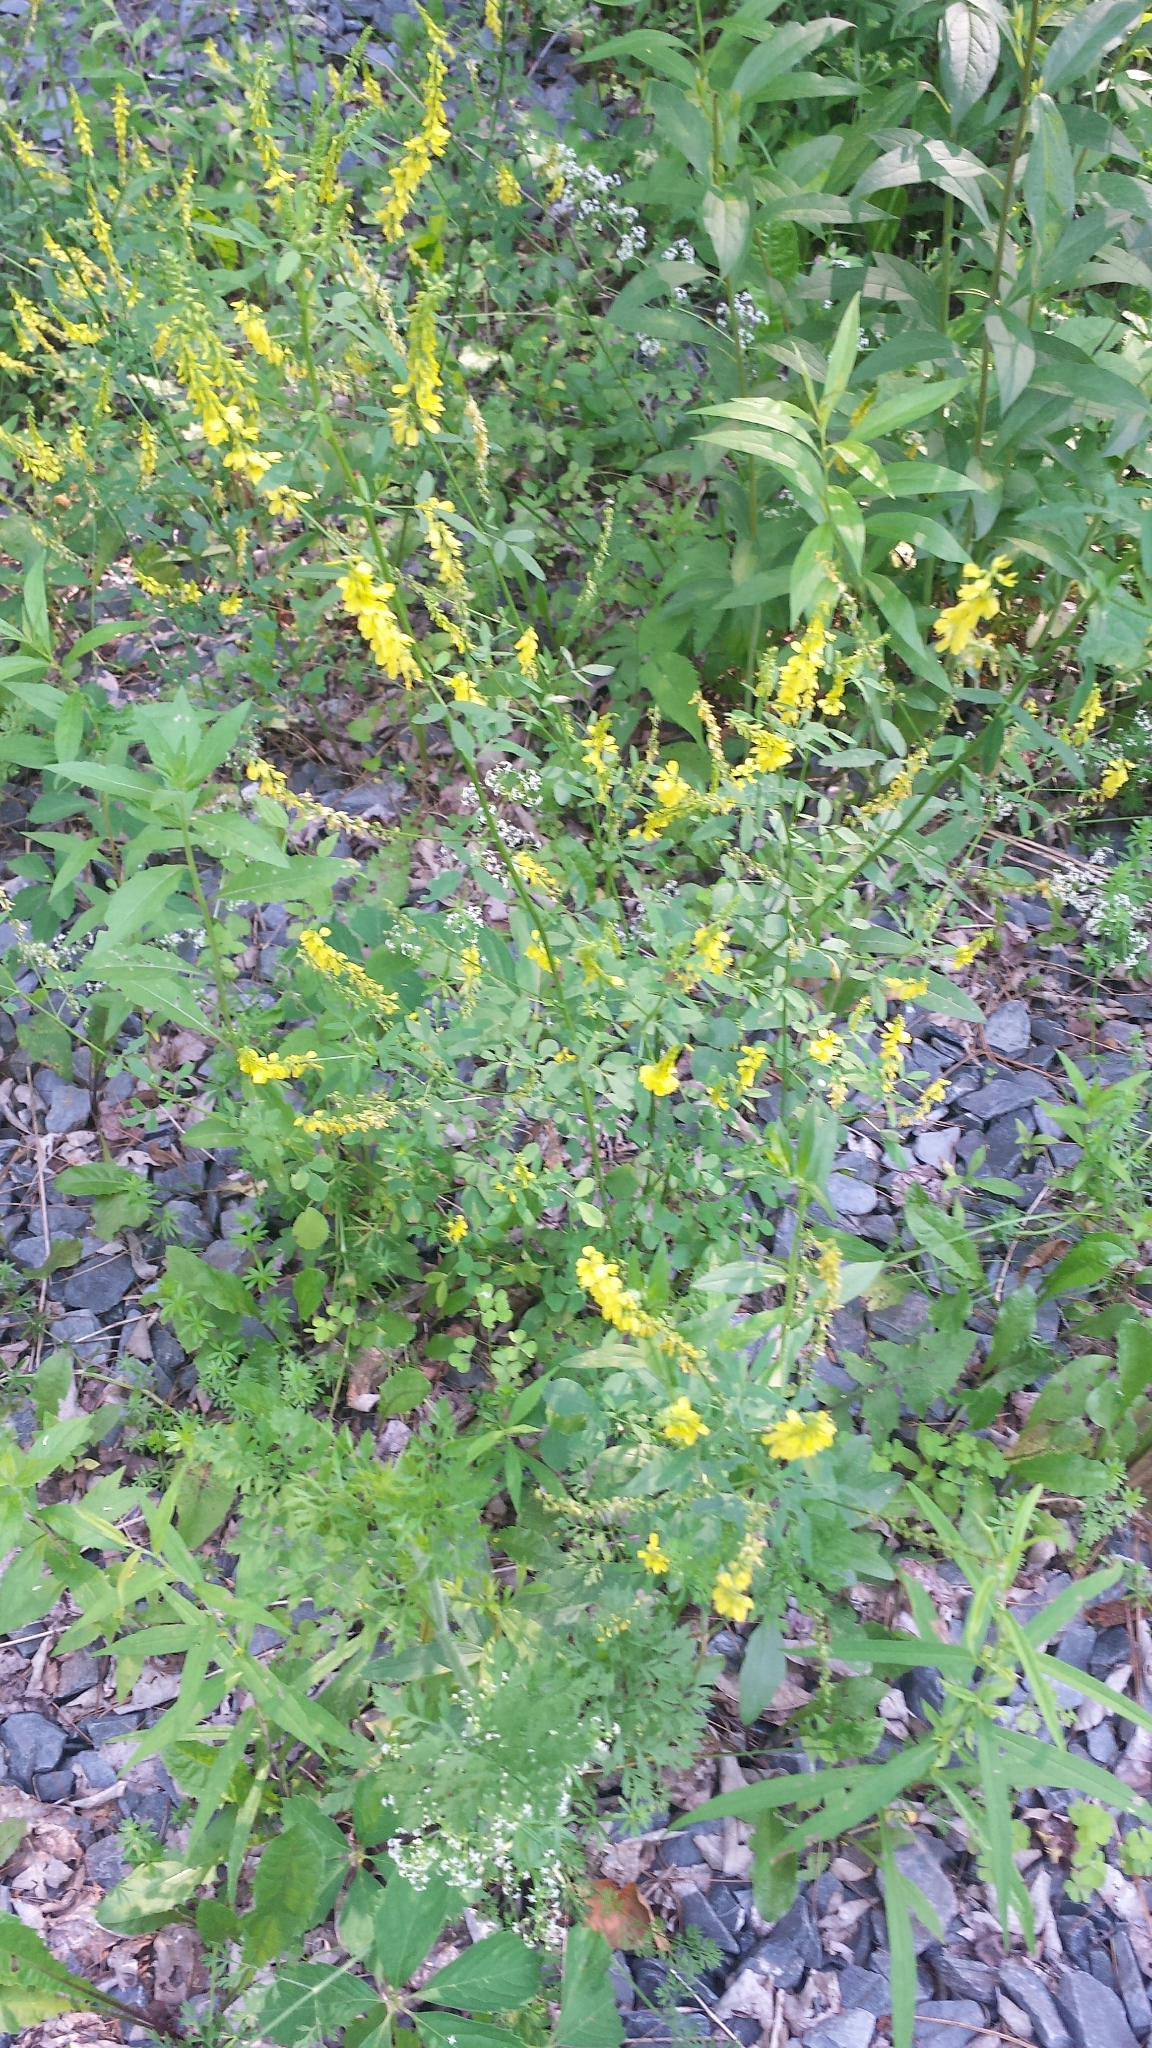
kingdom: Plantae
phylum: Tracheophyta
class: Magnoliopsida
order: Fabales
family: Fabaceae
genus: Melilotus
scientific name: Melilotus officinalis
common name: Sweetclover
